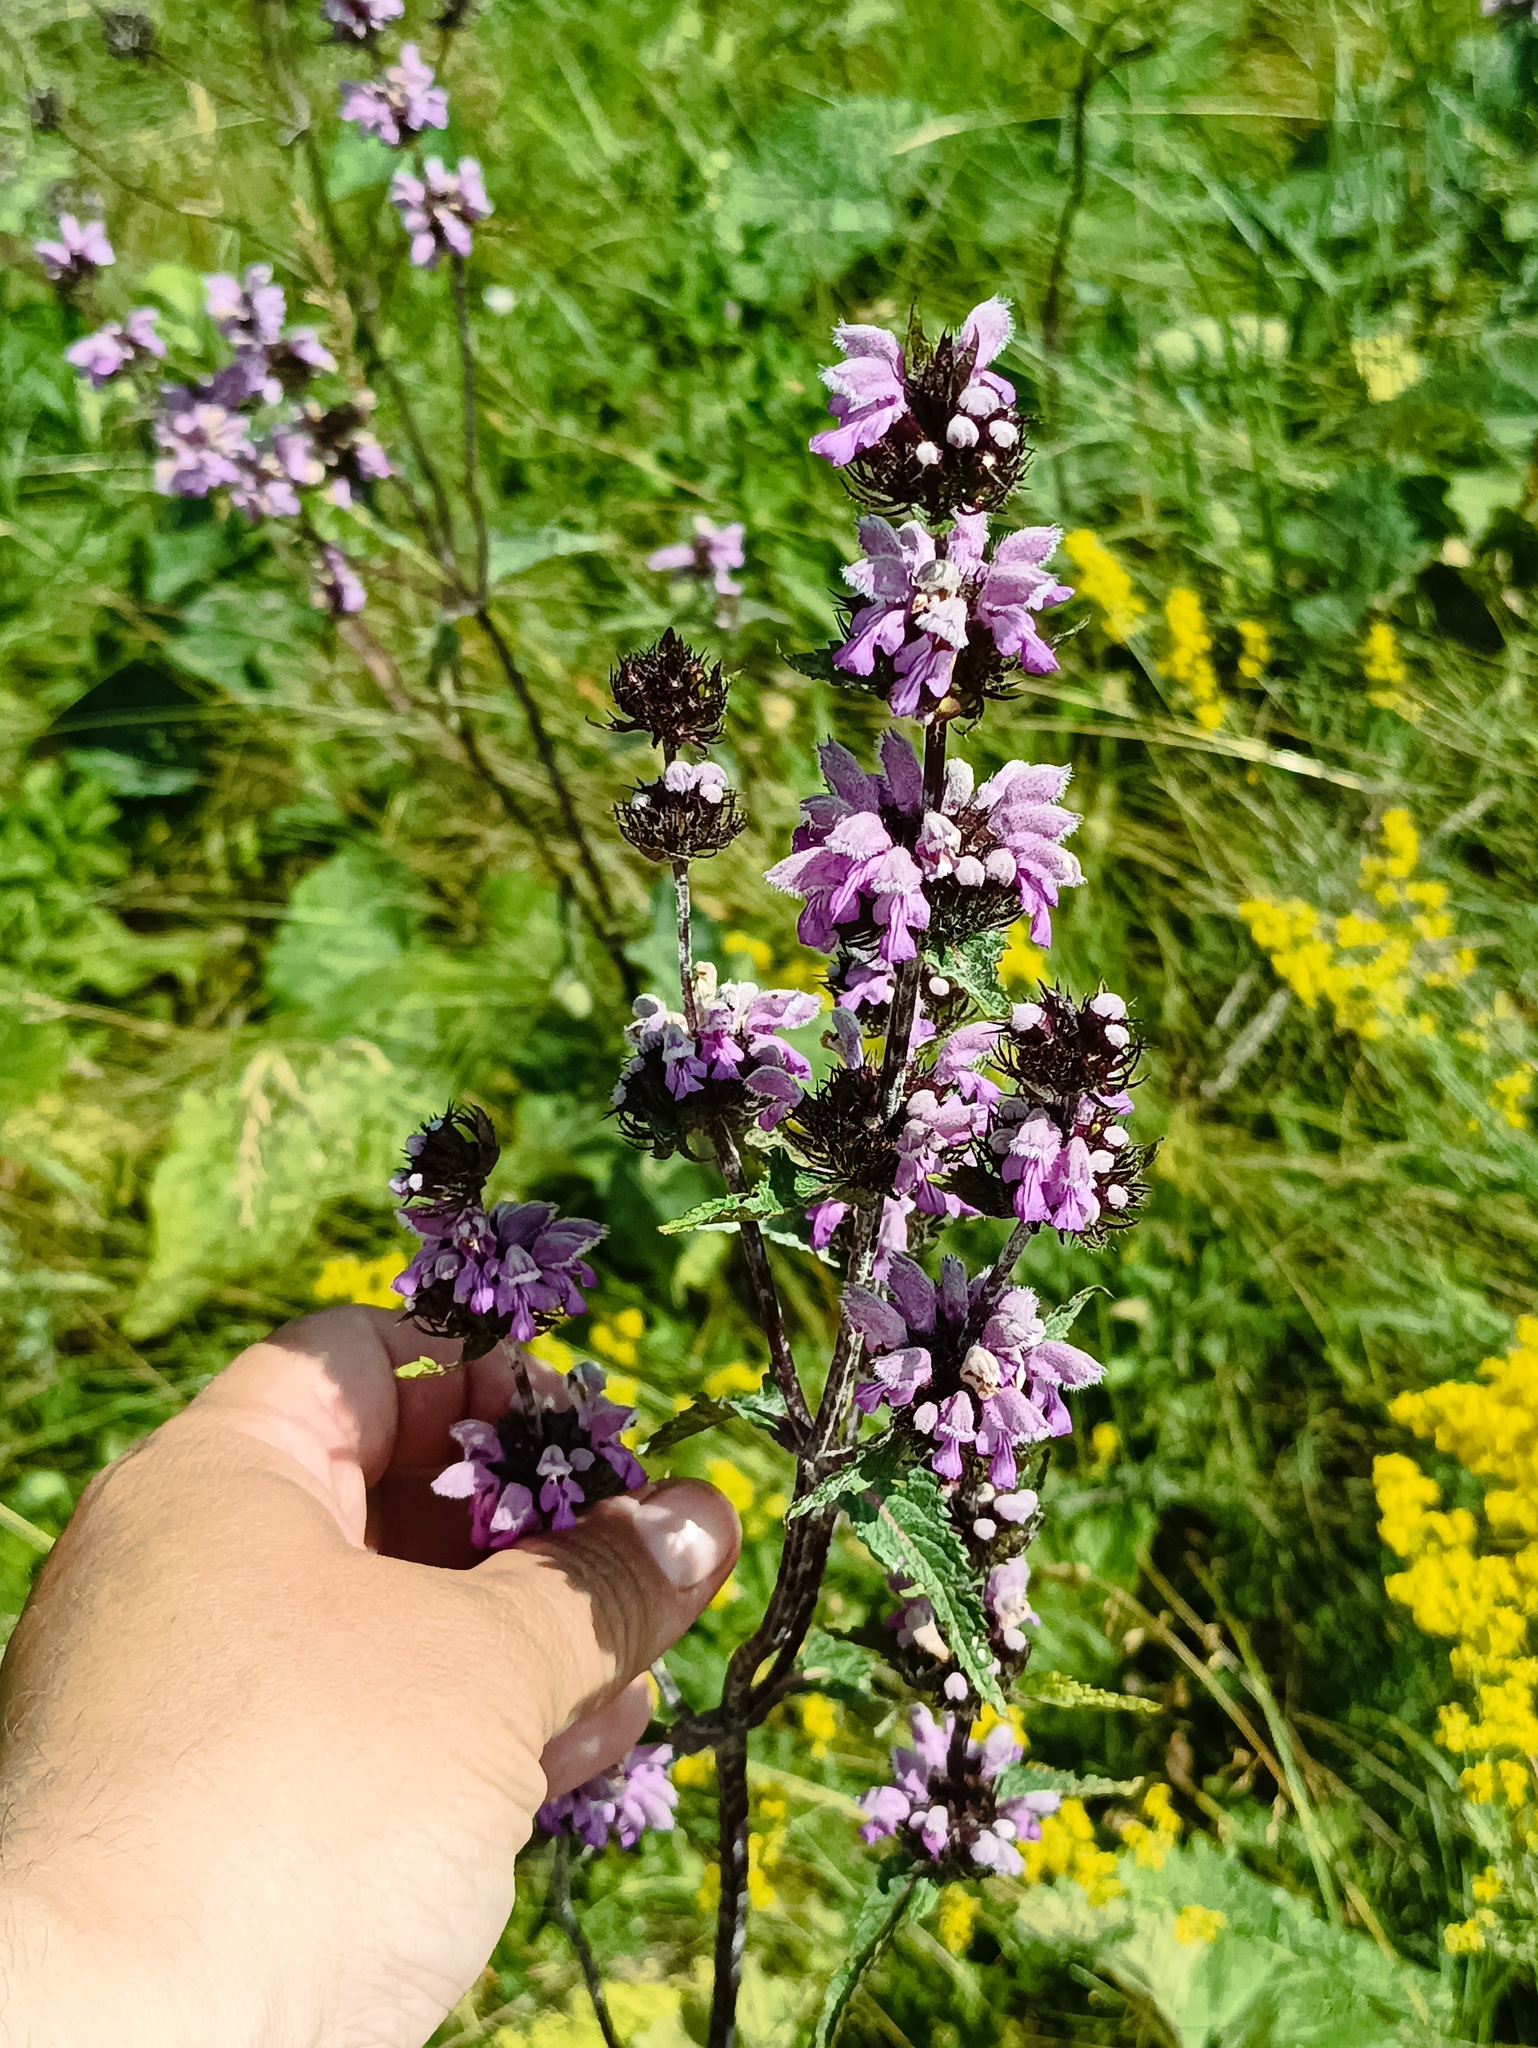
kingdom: Plantae
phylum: Tracheophyta
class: Magnoliopsida
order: Lamiales
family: Lamiaceae
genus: Phlomoides
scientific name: Phlomoides tuberosa
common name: Tuberous jerusalem sage
